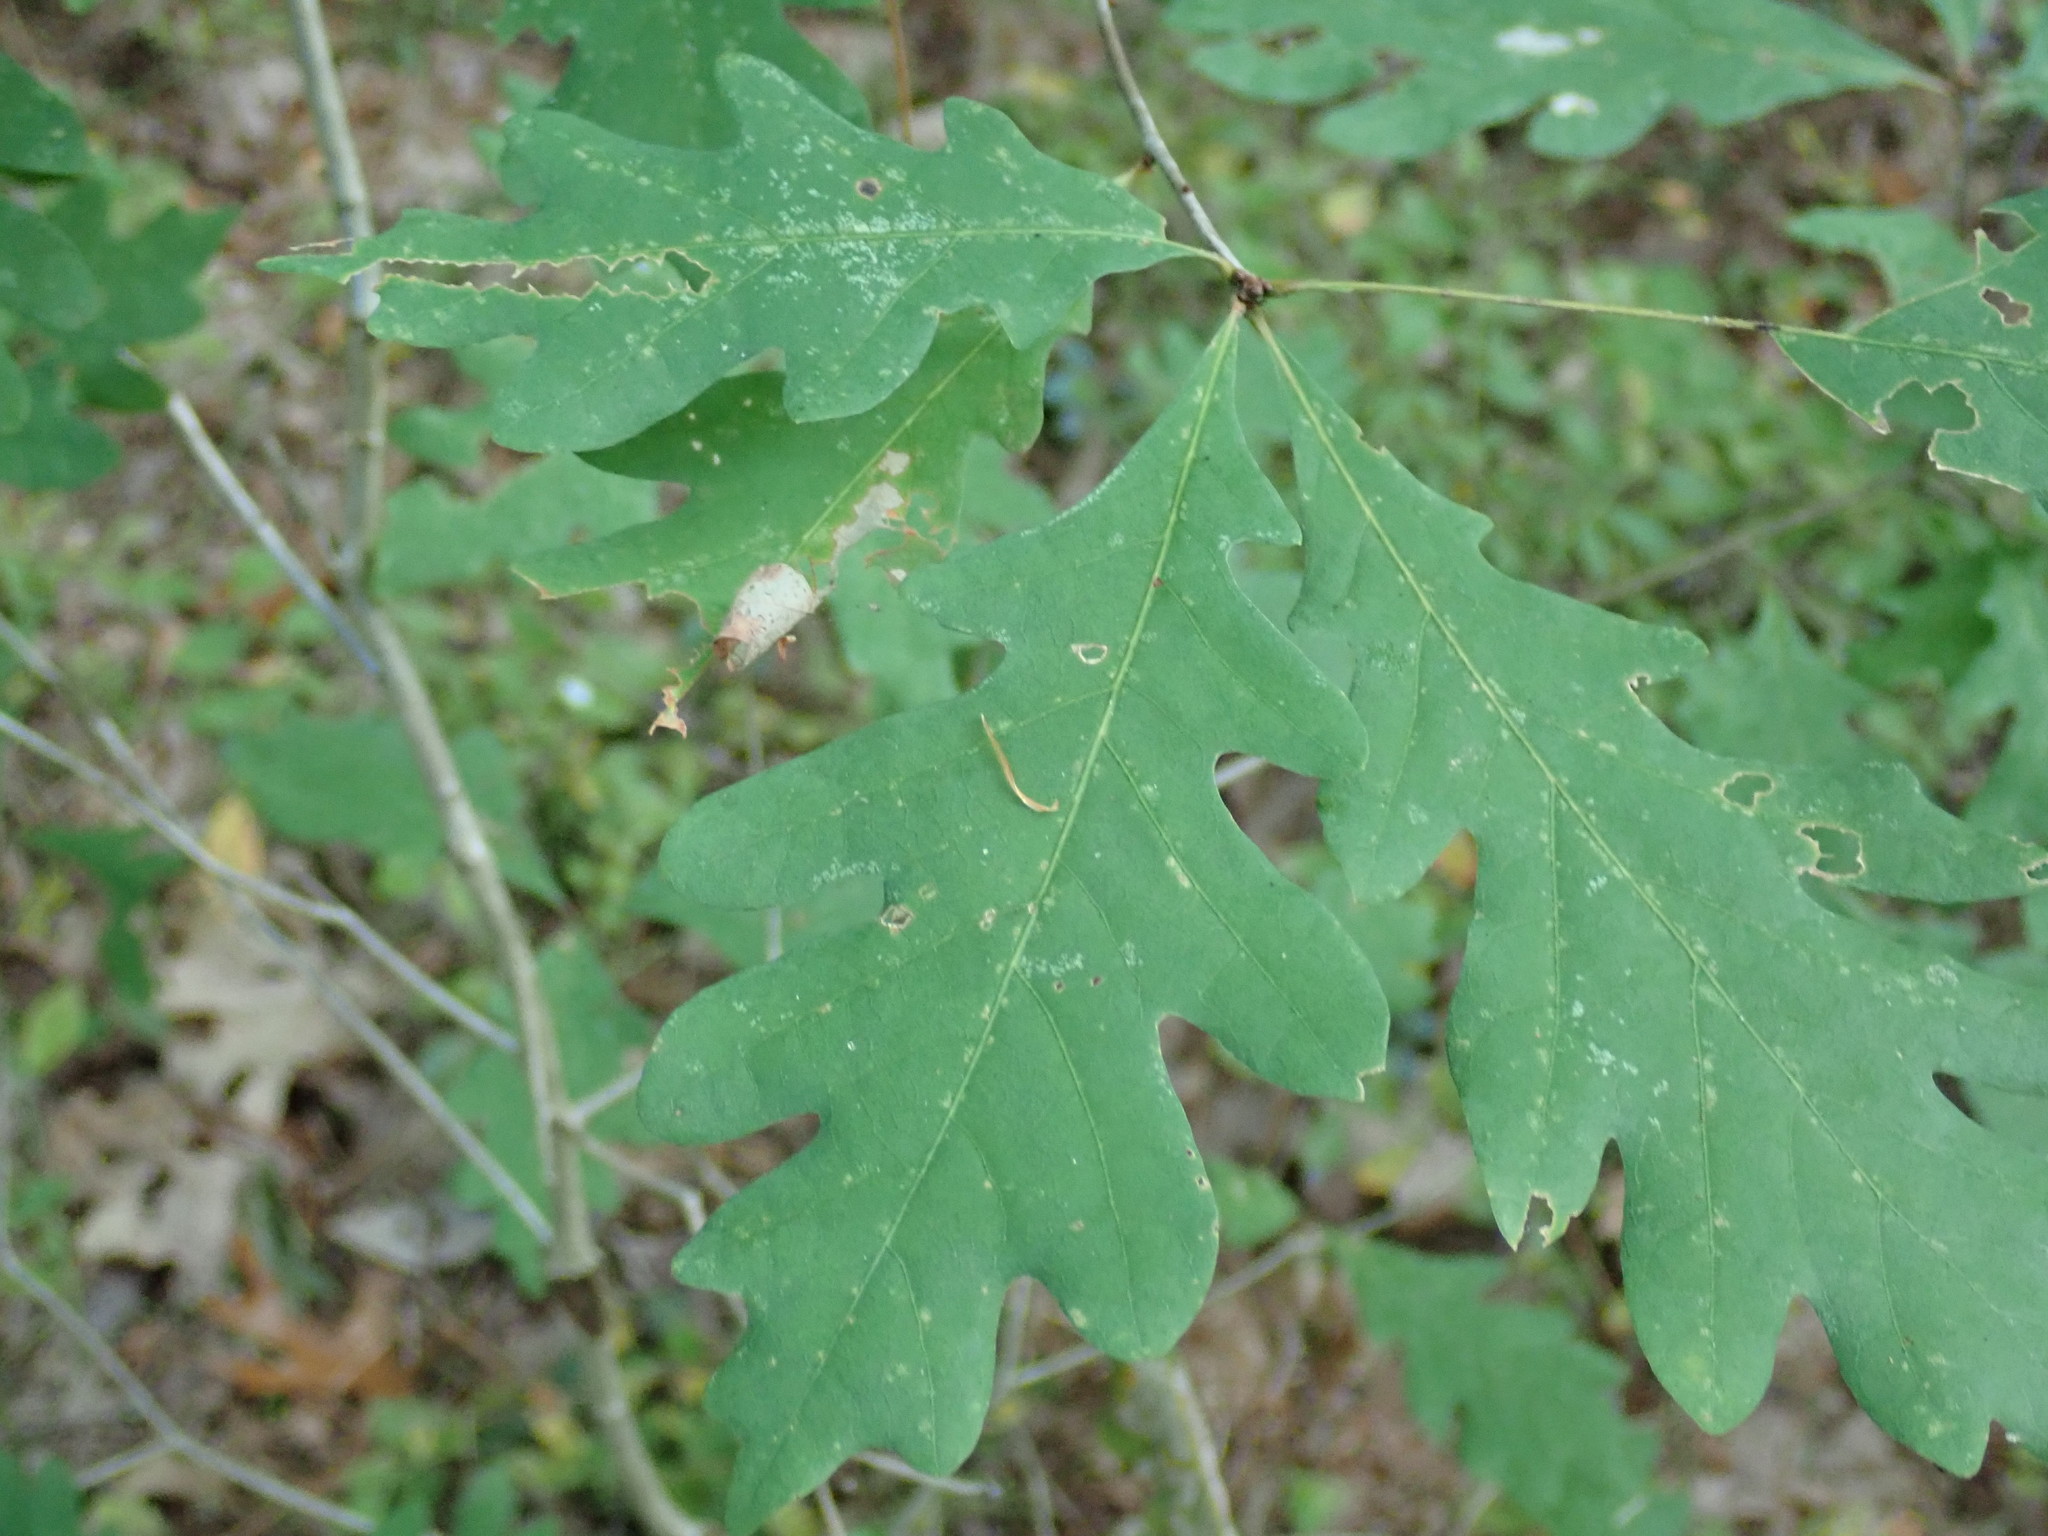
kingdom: Plantae
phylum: Tracheophyta
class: Magnoliopsida
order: Fagales
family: Fagaceae
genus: Quercus
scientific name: Quercus alba
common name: White oak
